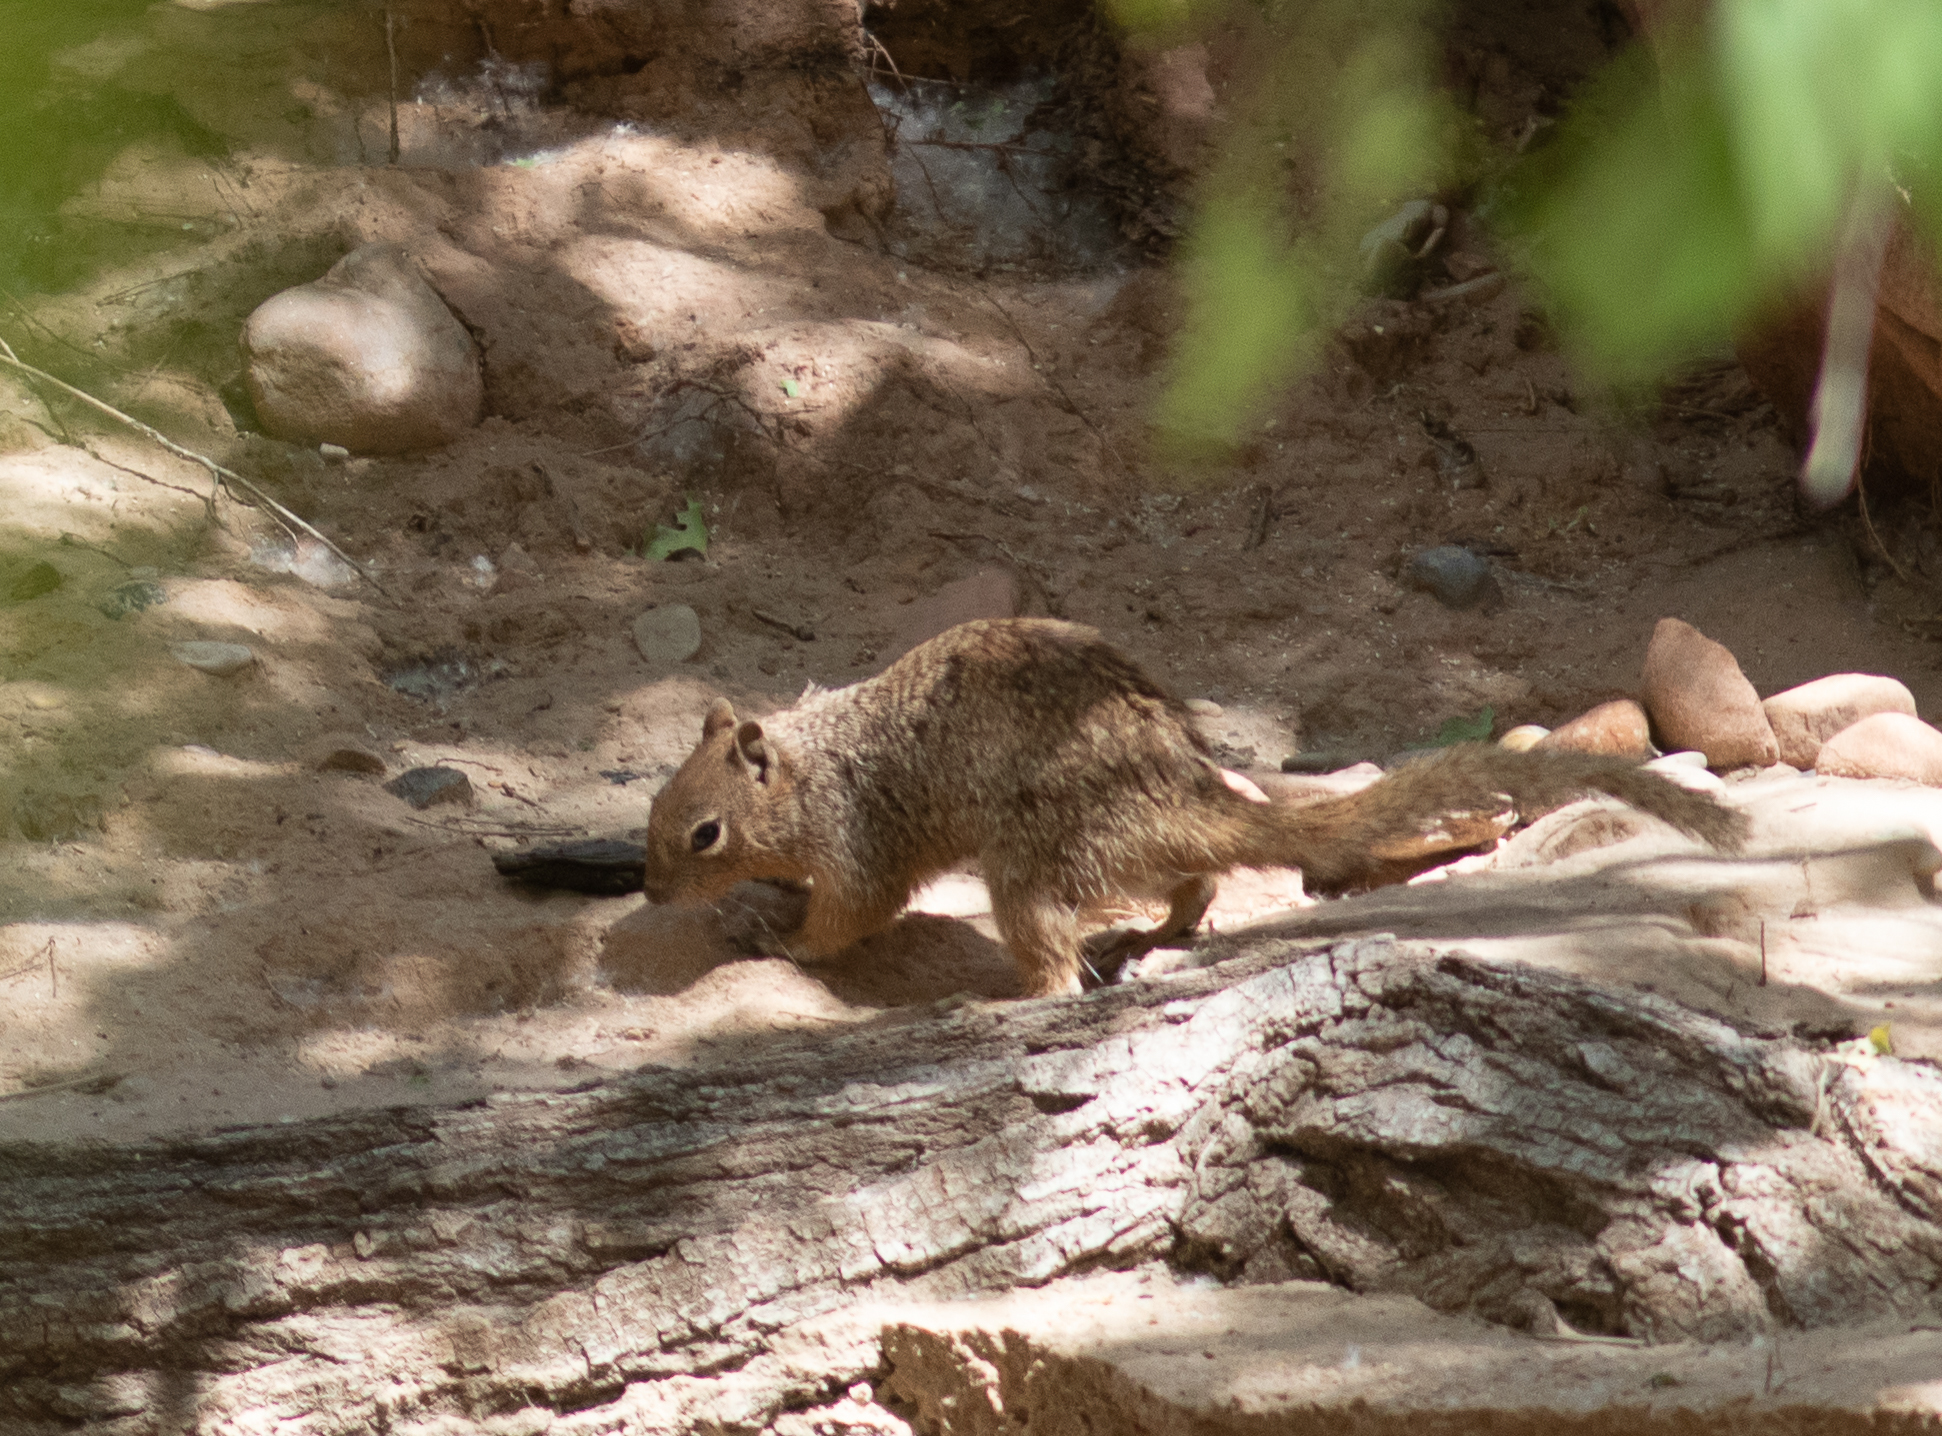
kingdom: Animalia
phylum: Chordata
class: Mammalia
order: Rodentia
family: Sciuridae
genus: Otospermophilus
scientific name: Otospermophilus variegatus
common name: Rock squirrel
